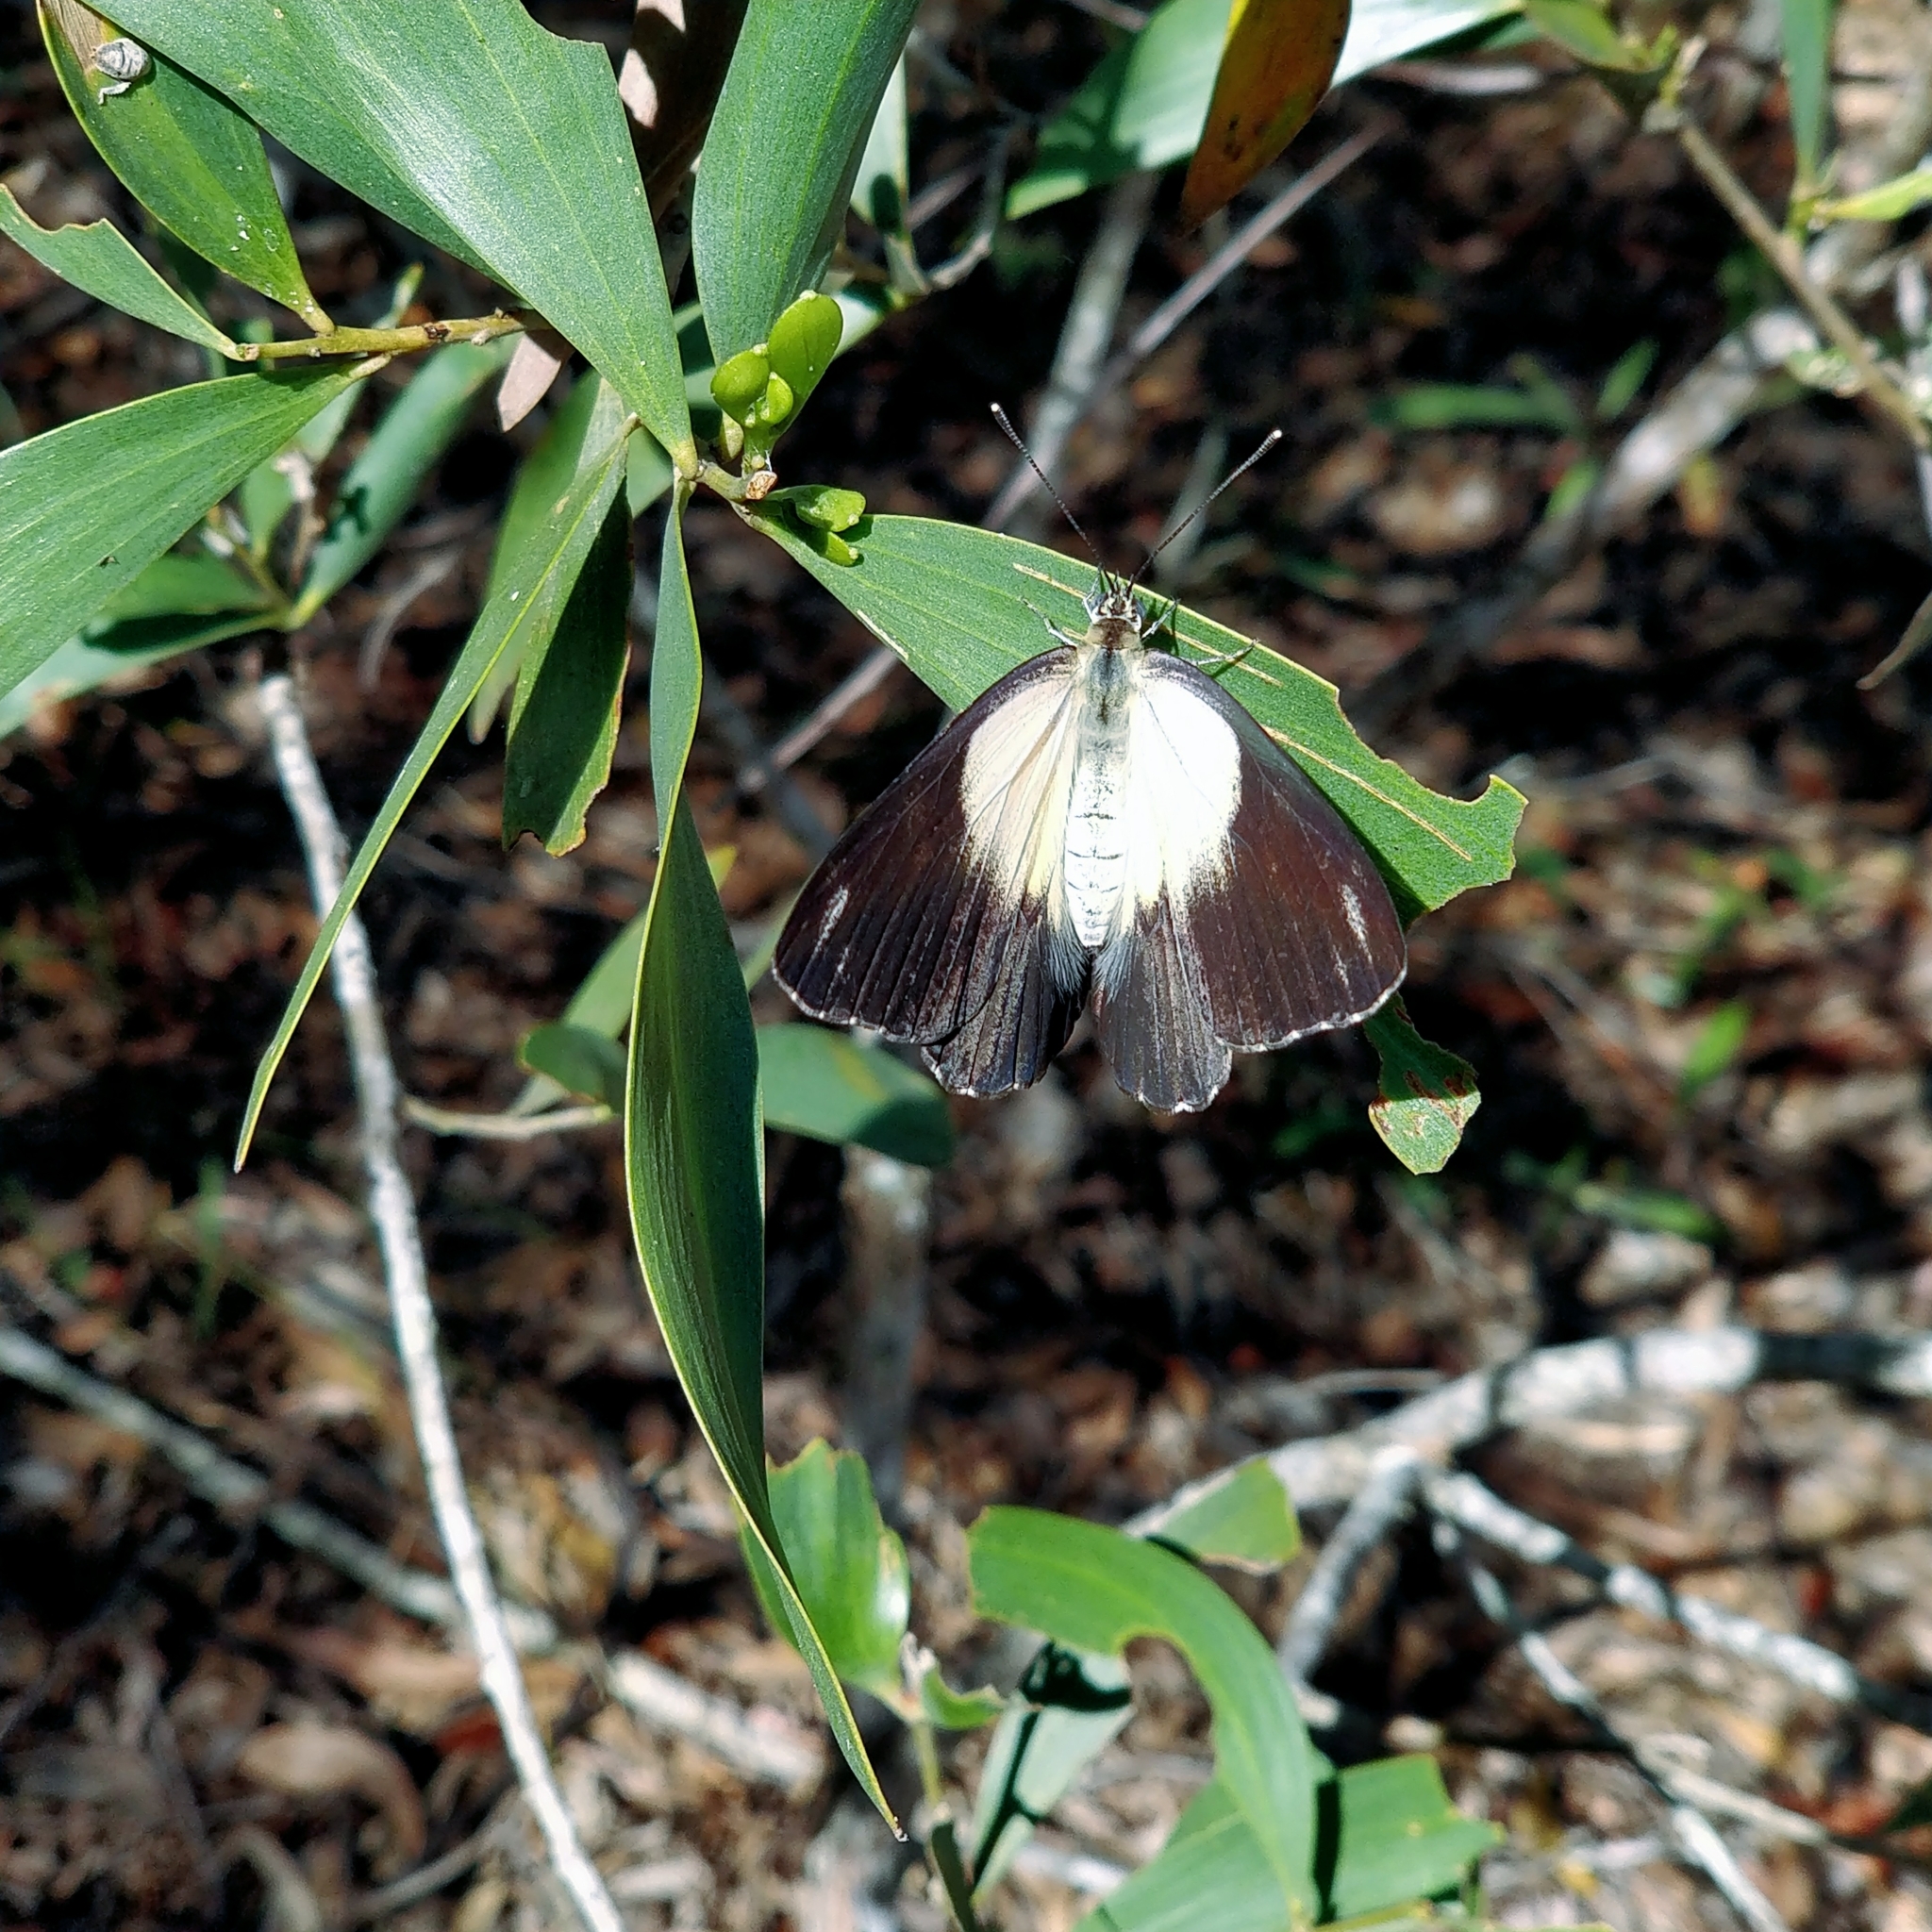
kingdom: Animalia
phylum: Arthropoda
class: Insecta
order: Lepidoptera
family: Pieridae
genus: Belenois
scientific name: Belenois java
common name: Caper white
